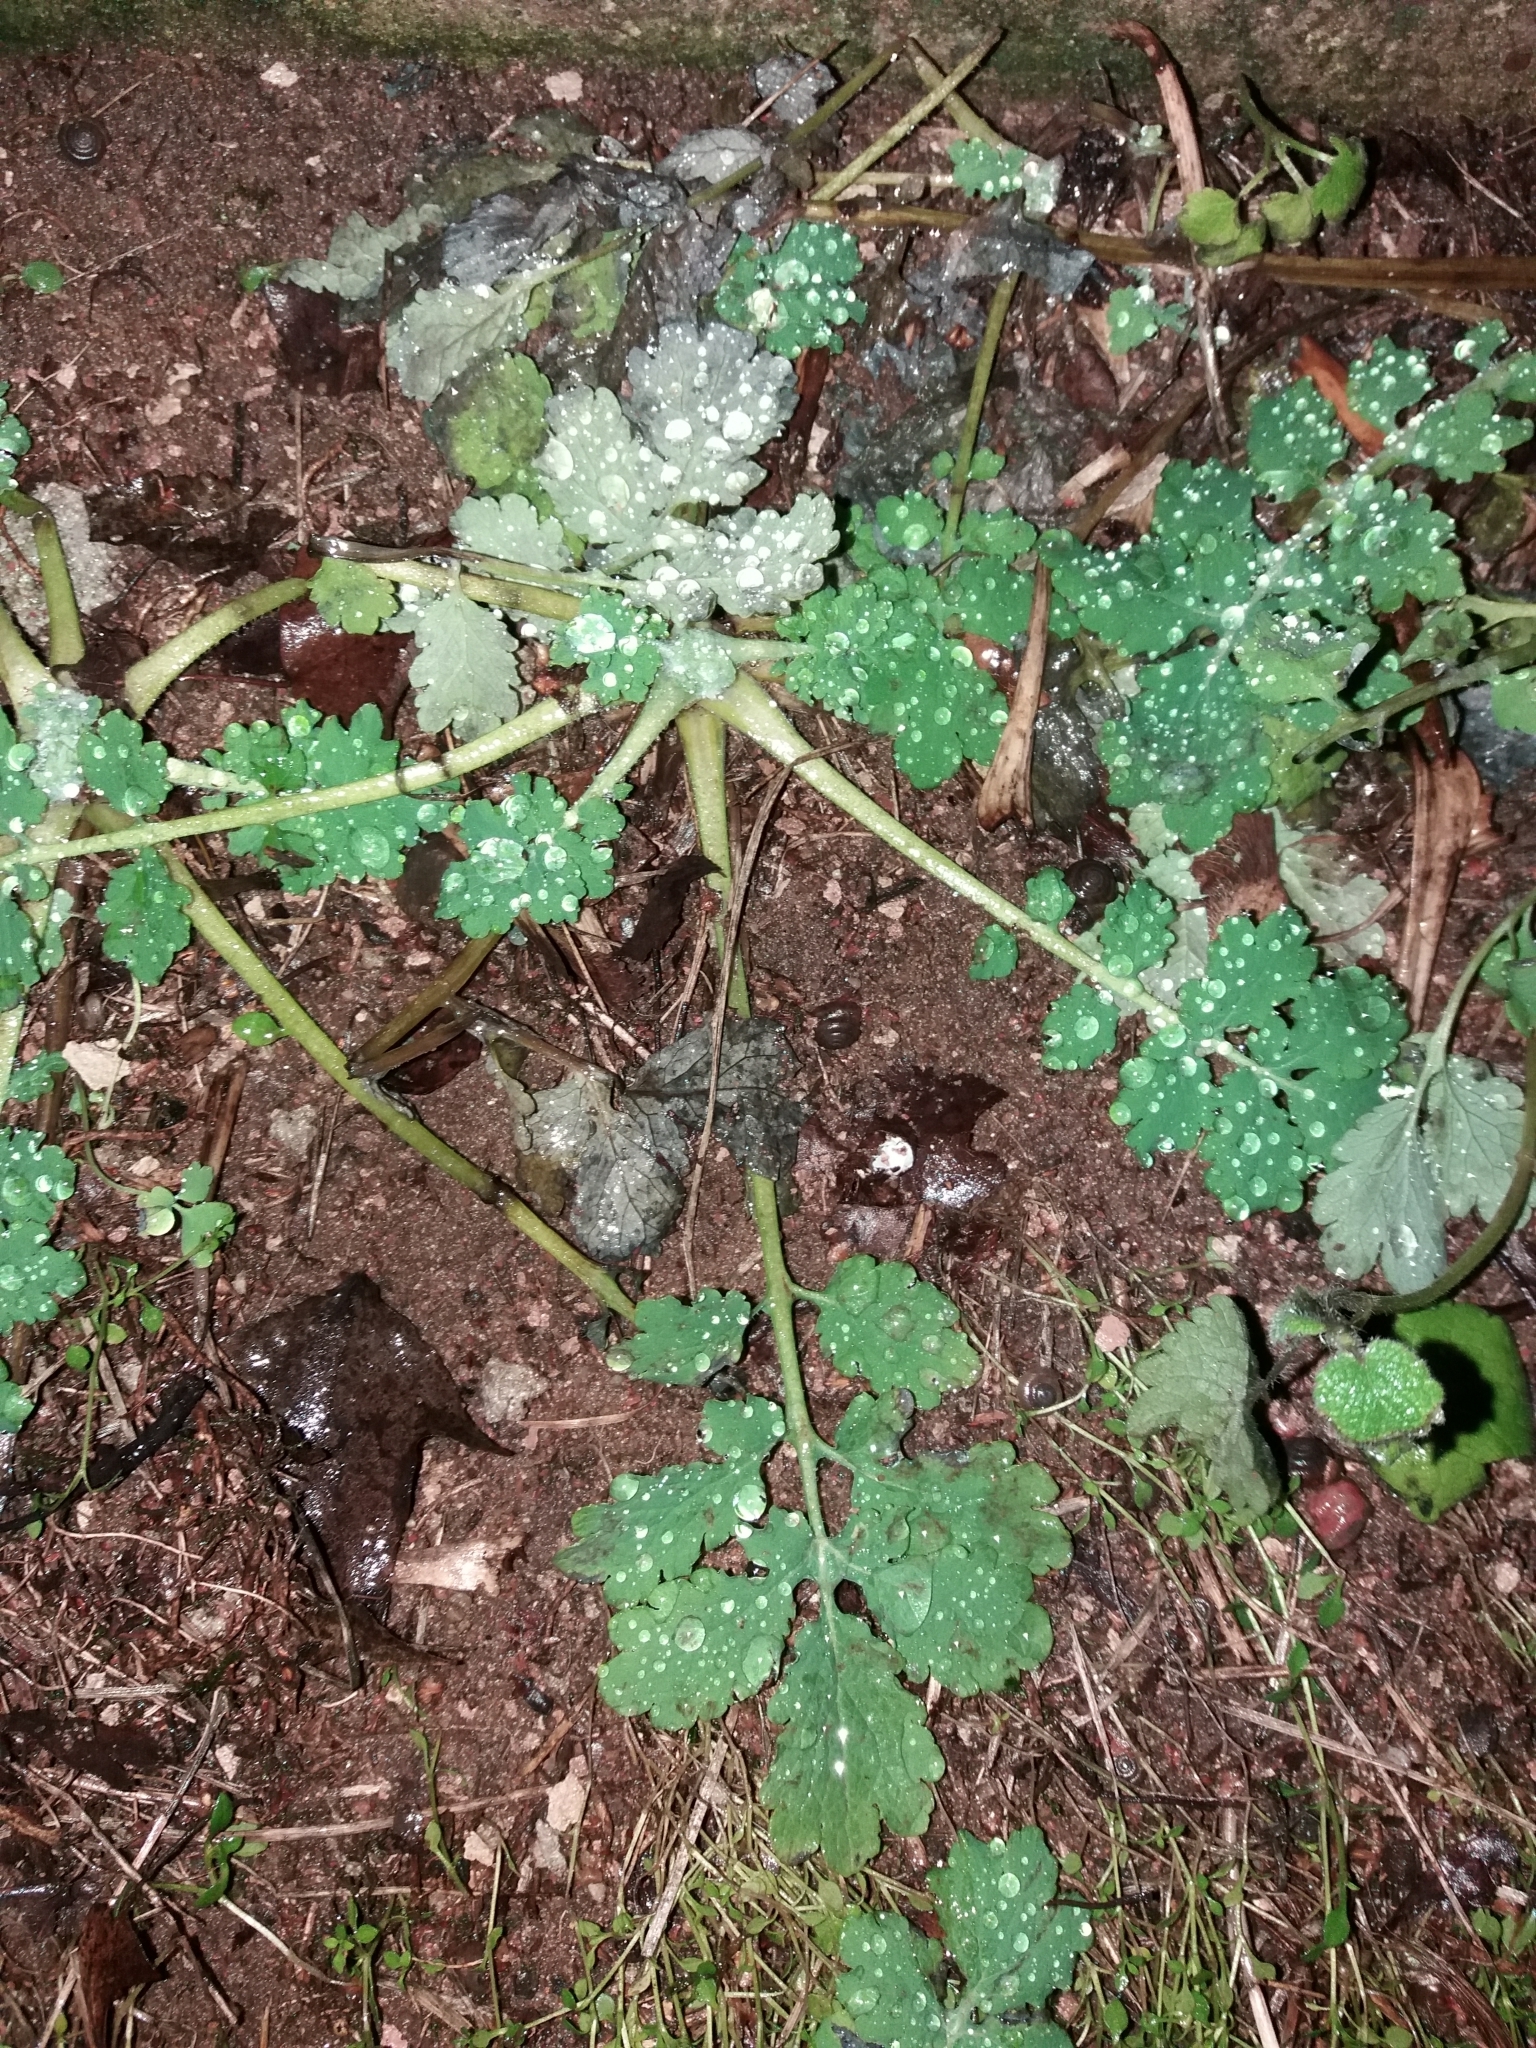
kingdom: Plantae
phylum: Tracheophyta
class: Magnoliopsida
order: Ranunculales
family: Papaveraceae
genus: Chelidonium
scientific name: Chelidonium majus
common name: Greater celandine
